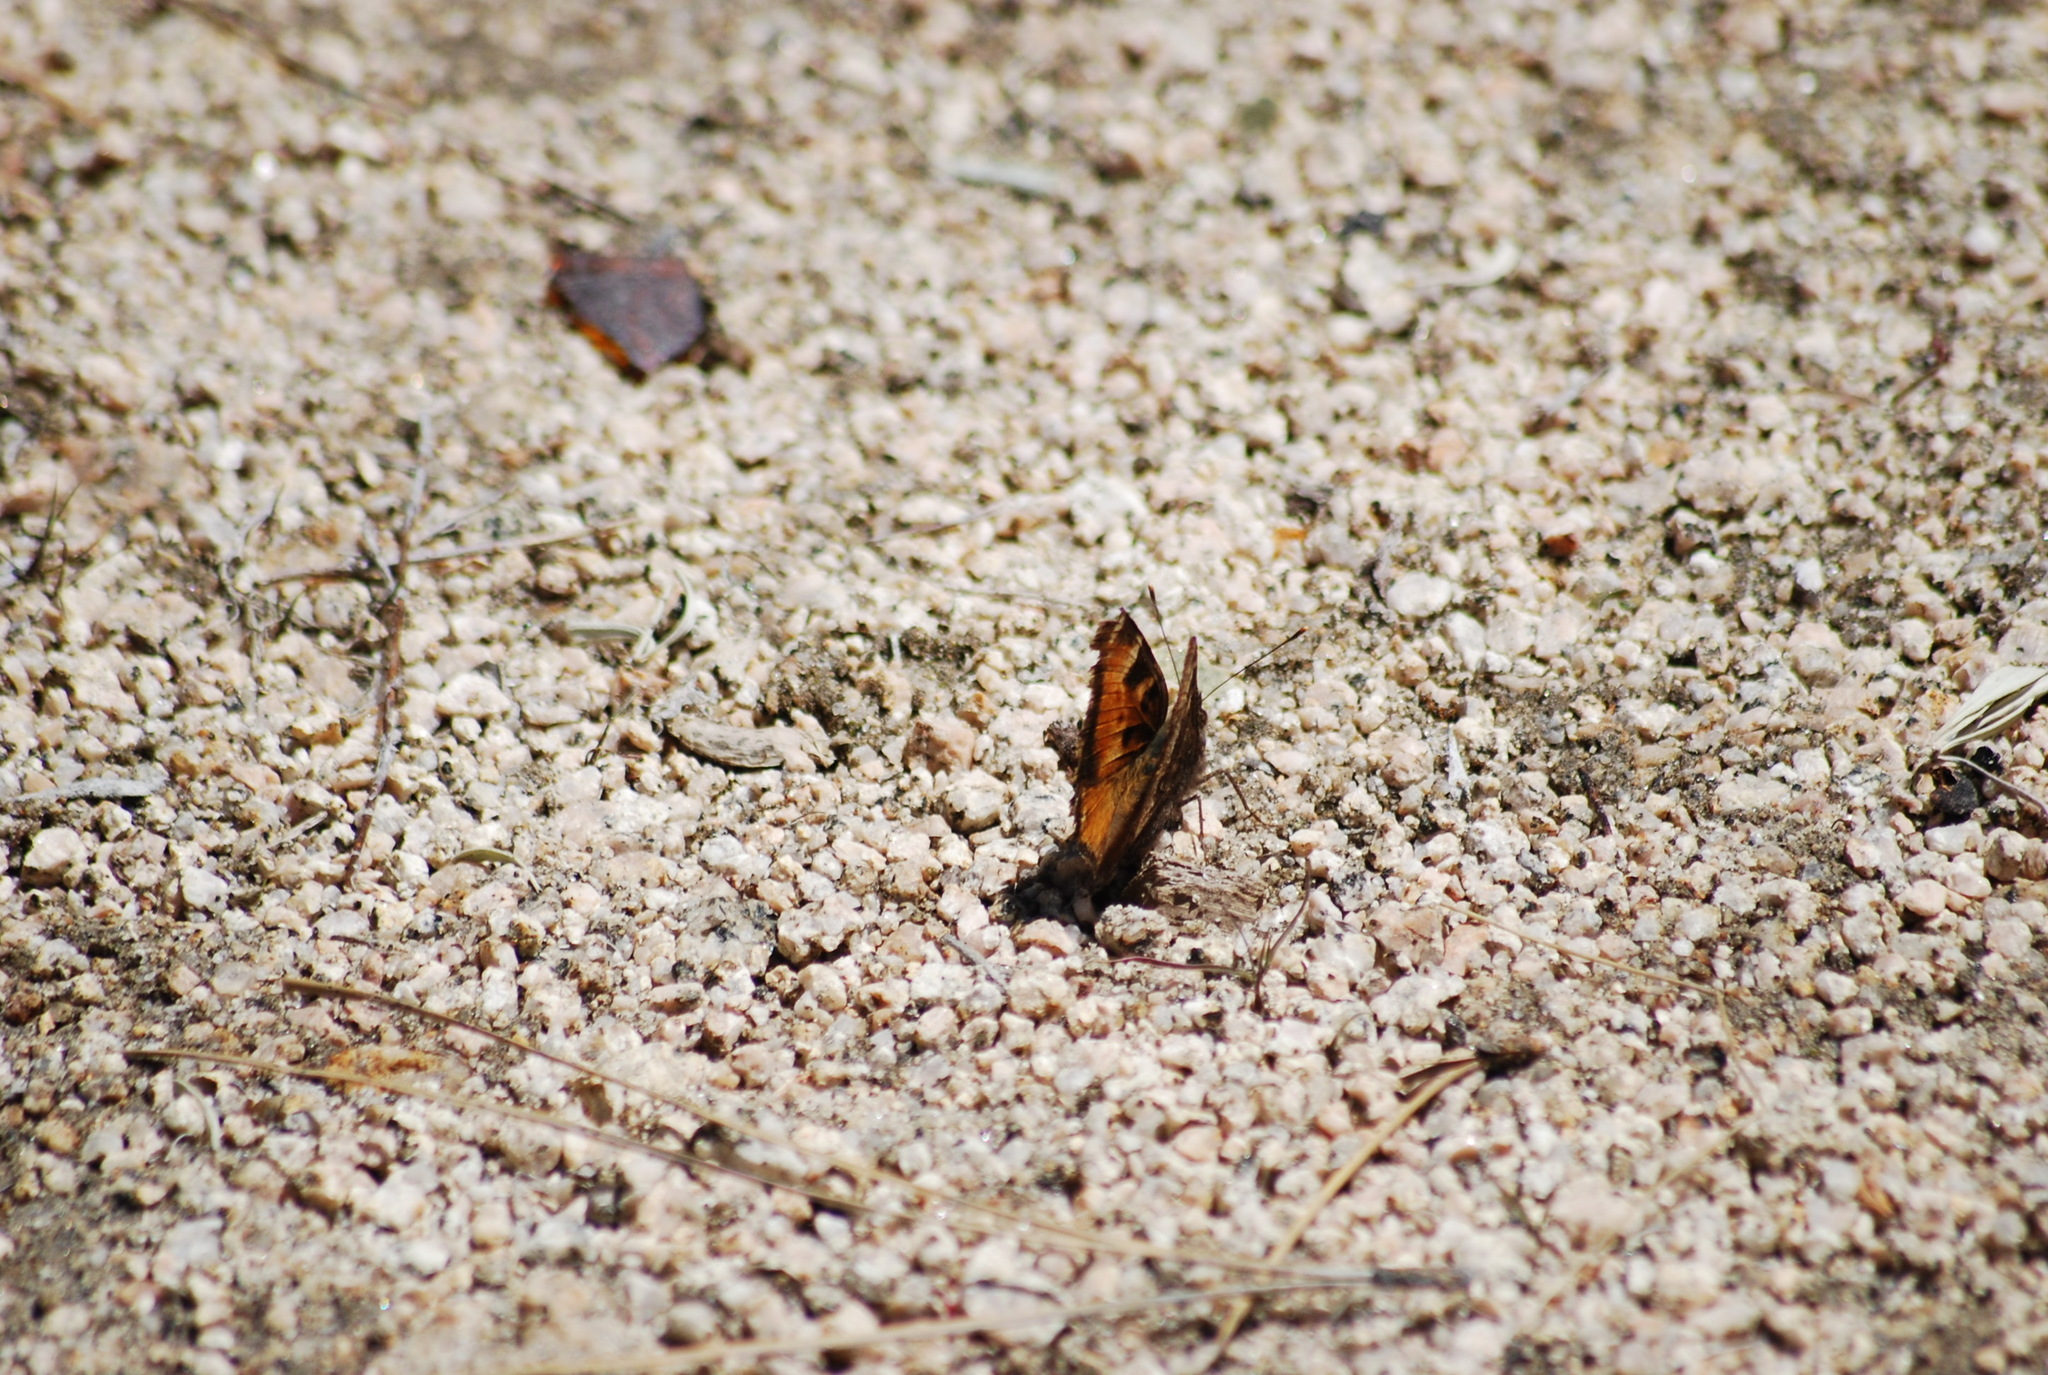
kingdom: Animalia
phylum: Arthropoda
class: Insecta
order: Lepidoptera
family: Nymphalidae
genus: Nymphalis
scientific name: Nymphalis californica
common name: California tortoiseshell
